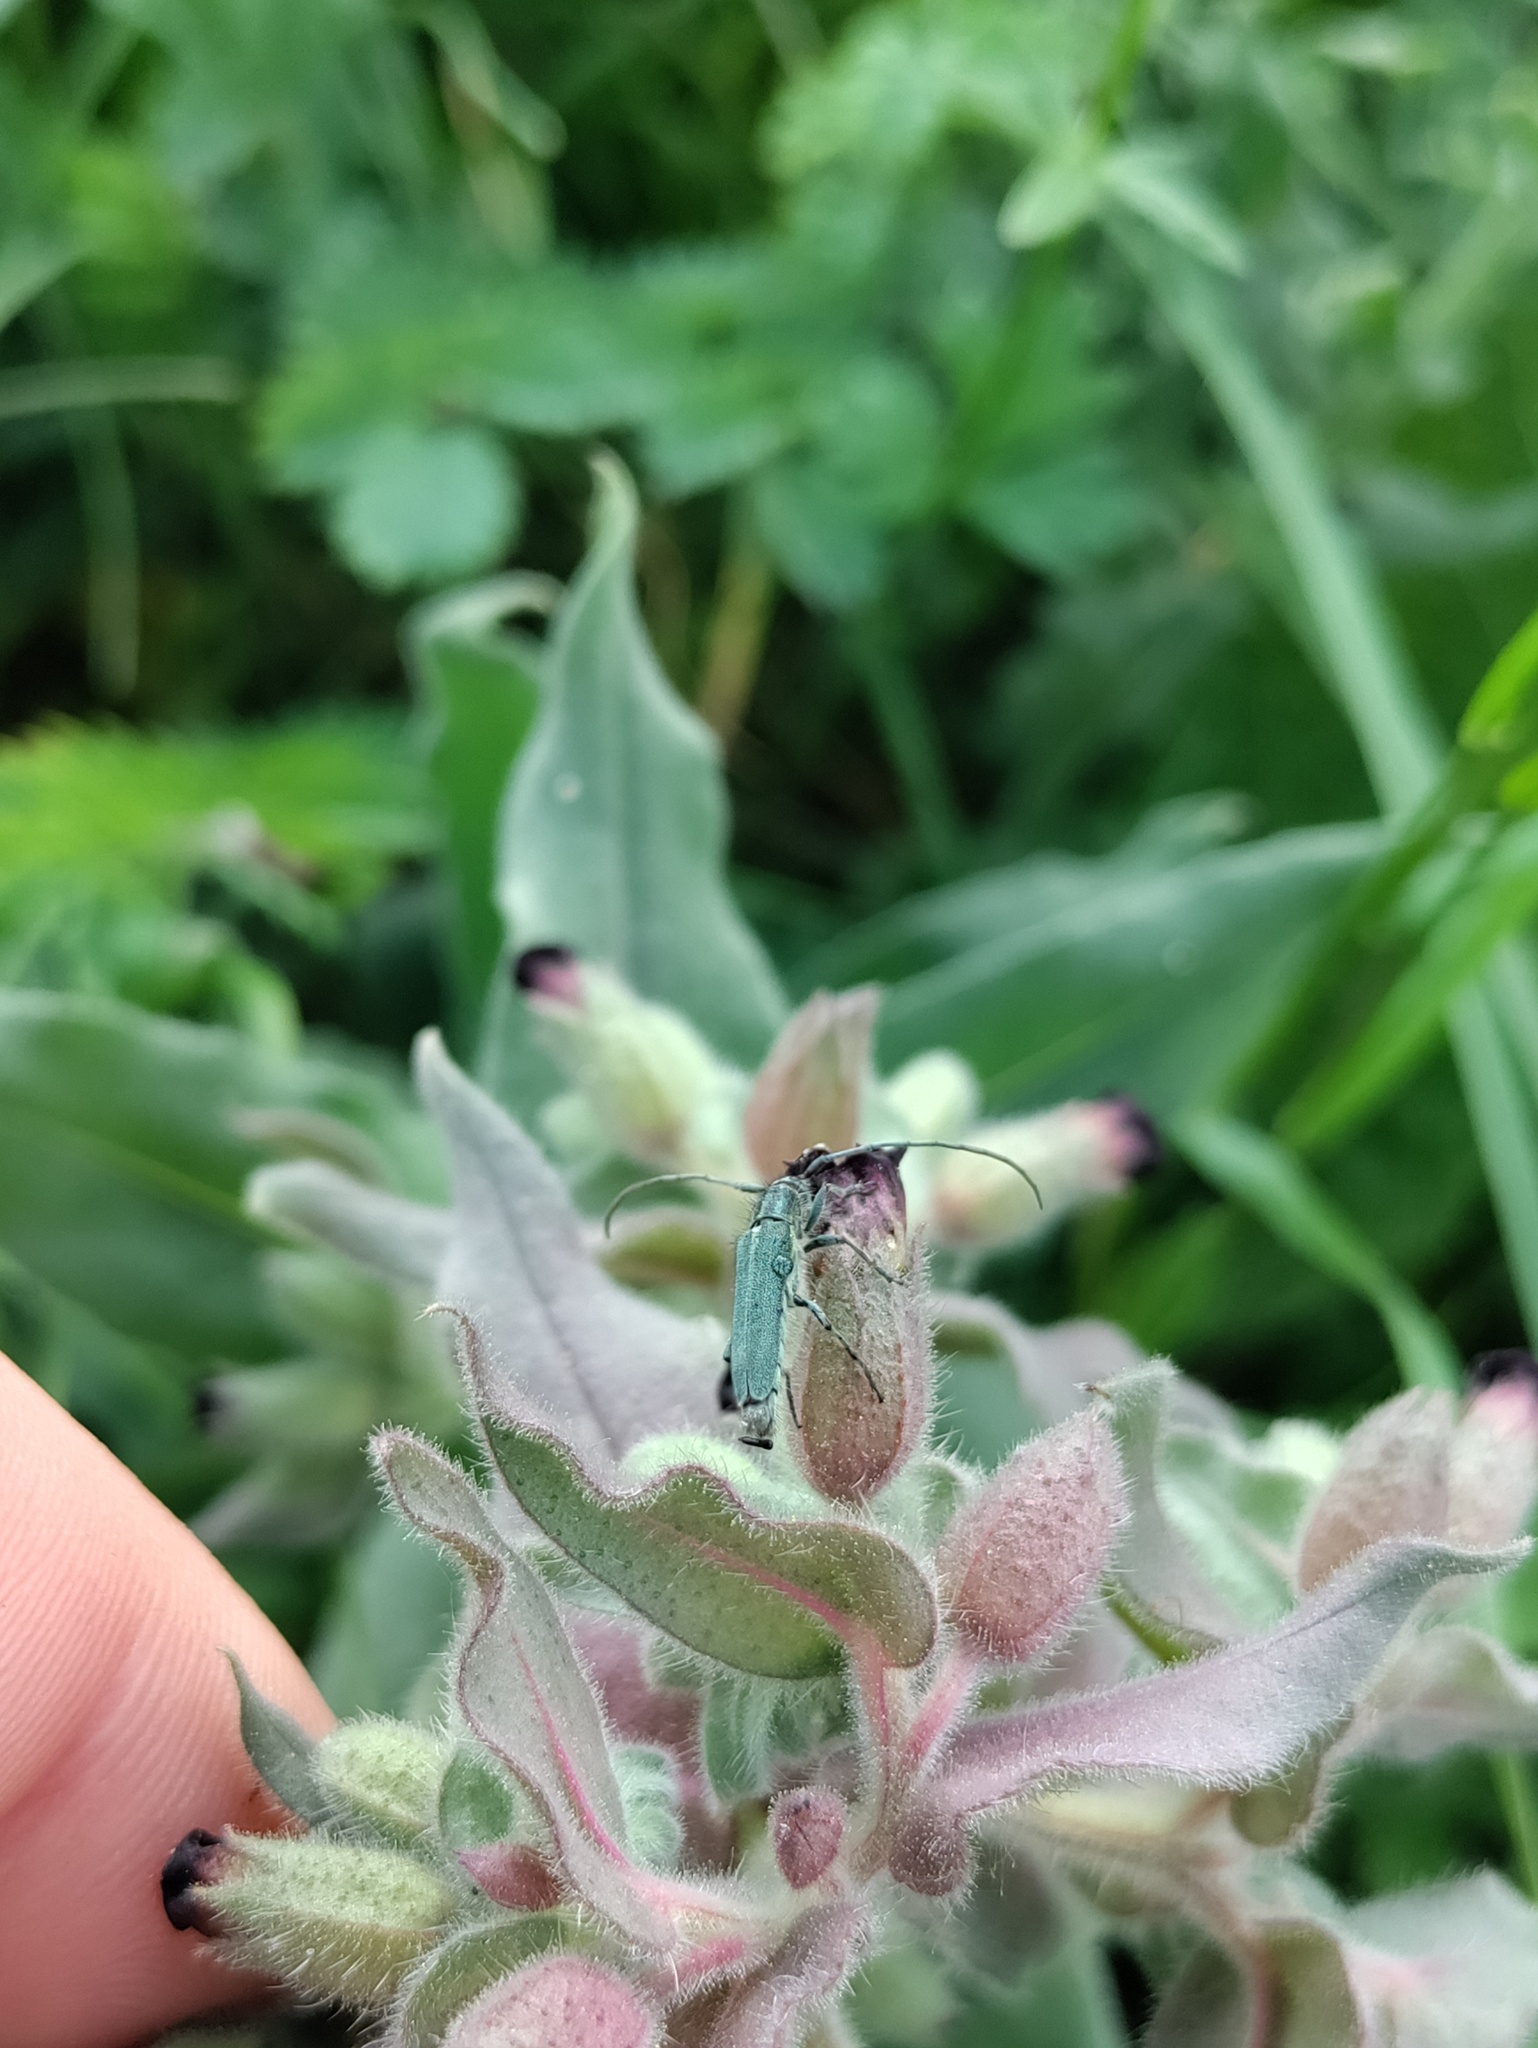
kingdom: Animalia
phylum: Arthropoda
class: Insecta
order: Coleoptera
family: Cerambycidae
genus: Phytoecia
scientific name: Phytoecia coerulescens
